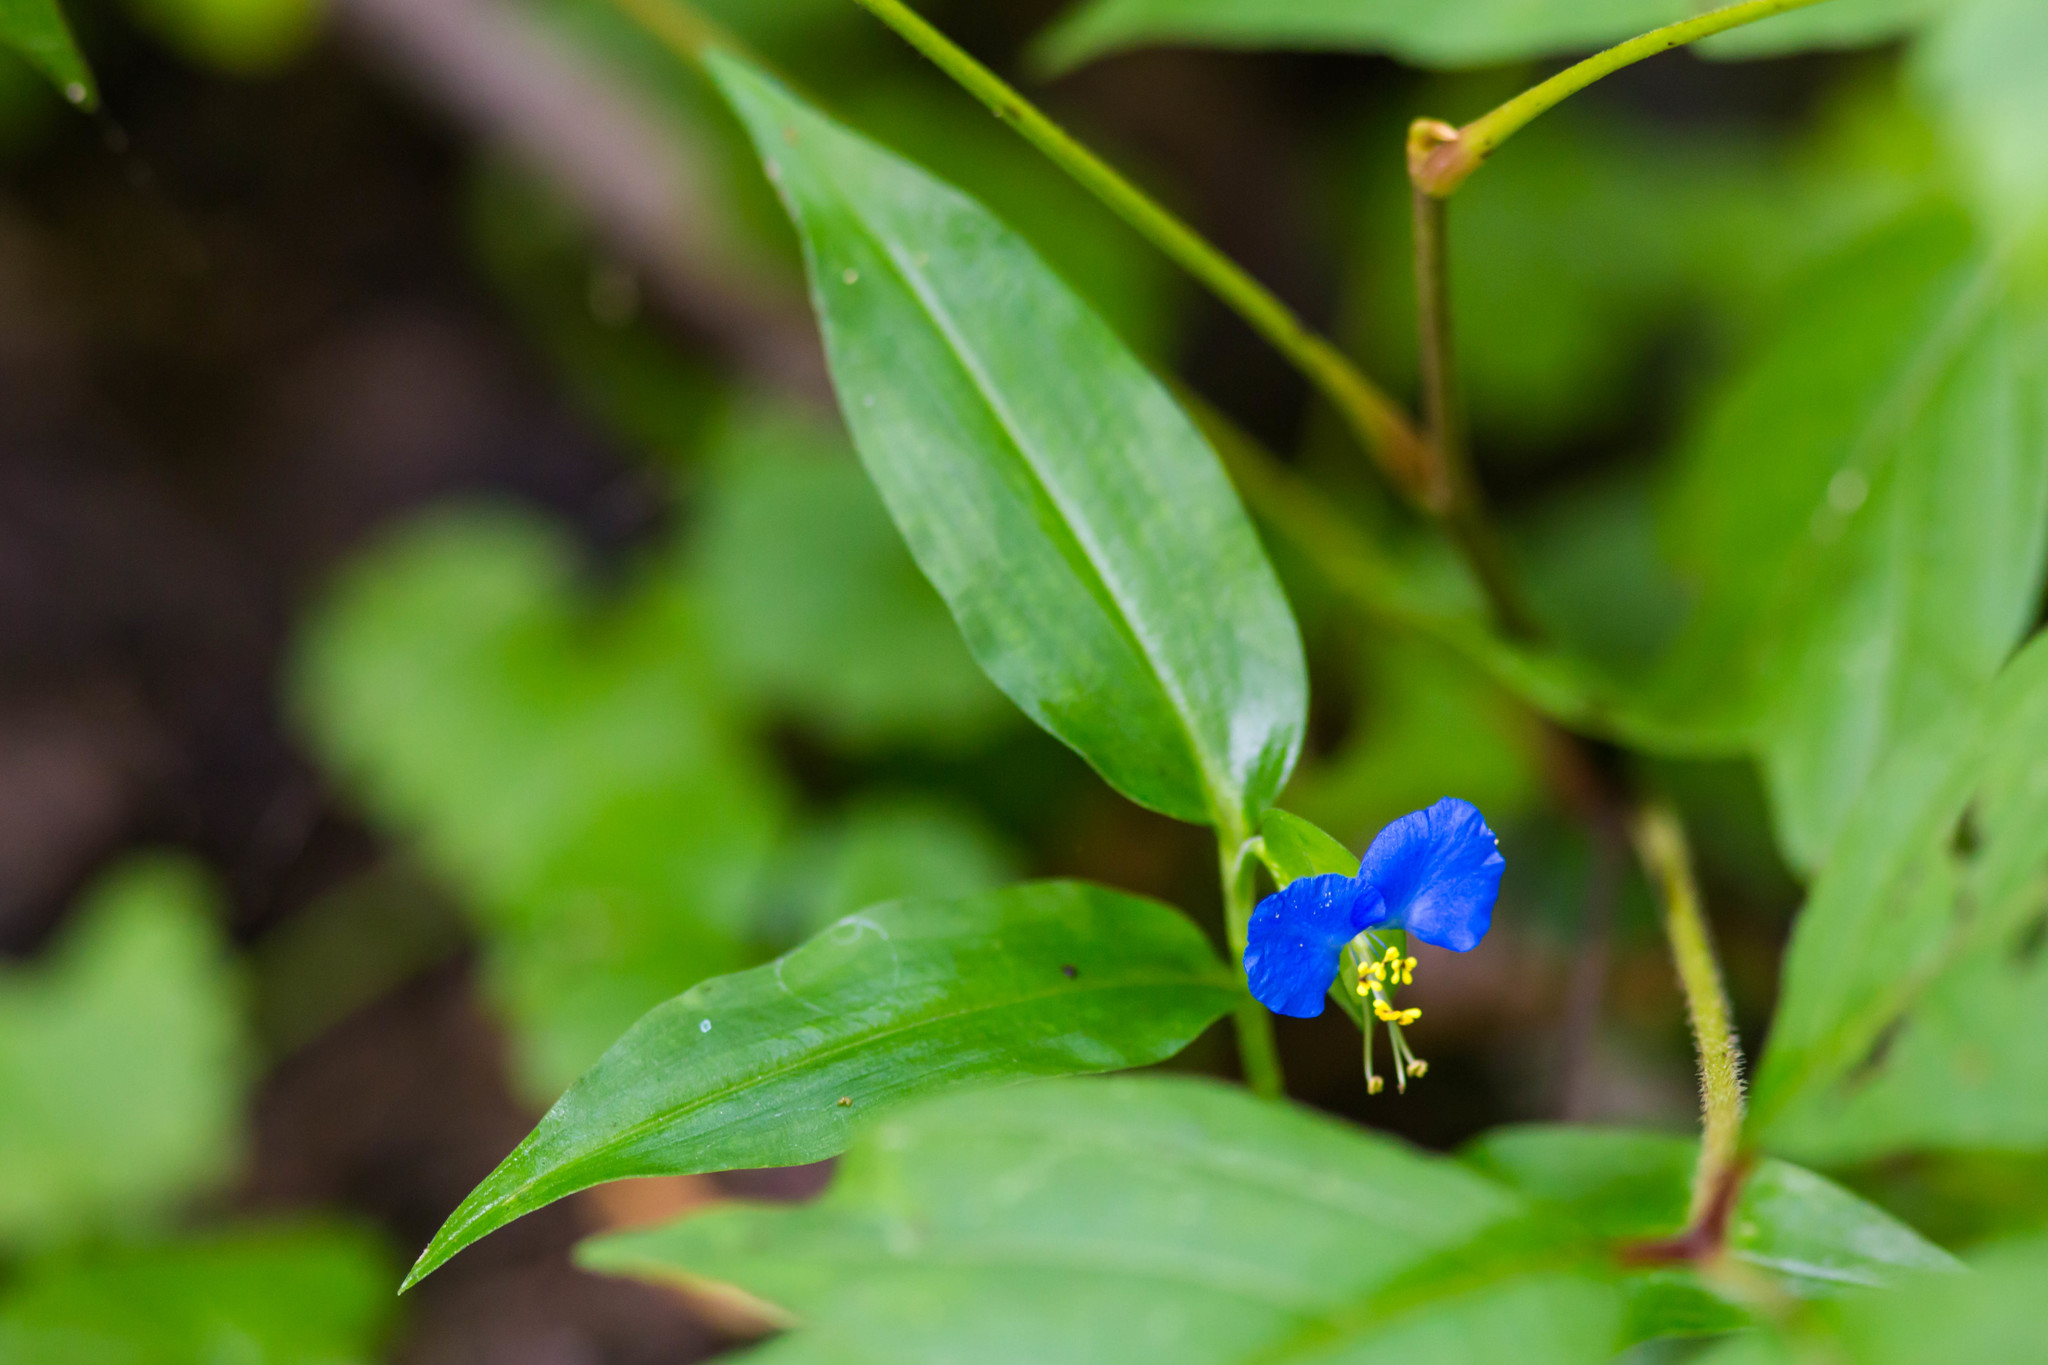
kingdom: Plantae
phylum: Tracheophyta
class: Liliopsida
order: Commelinales
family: Commelinaceae
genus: Commelina
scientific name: Commelina communis
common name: Asiatic dayflower
